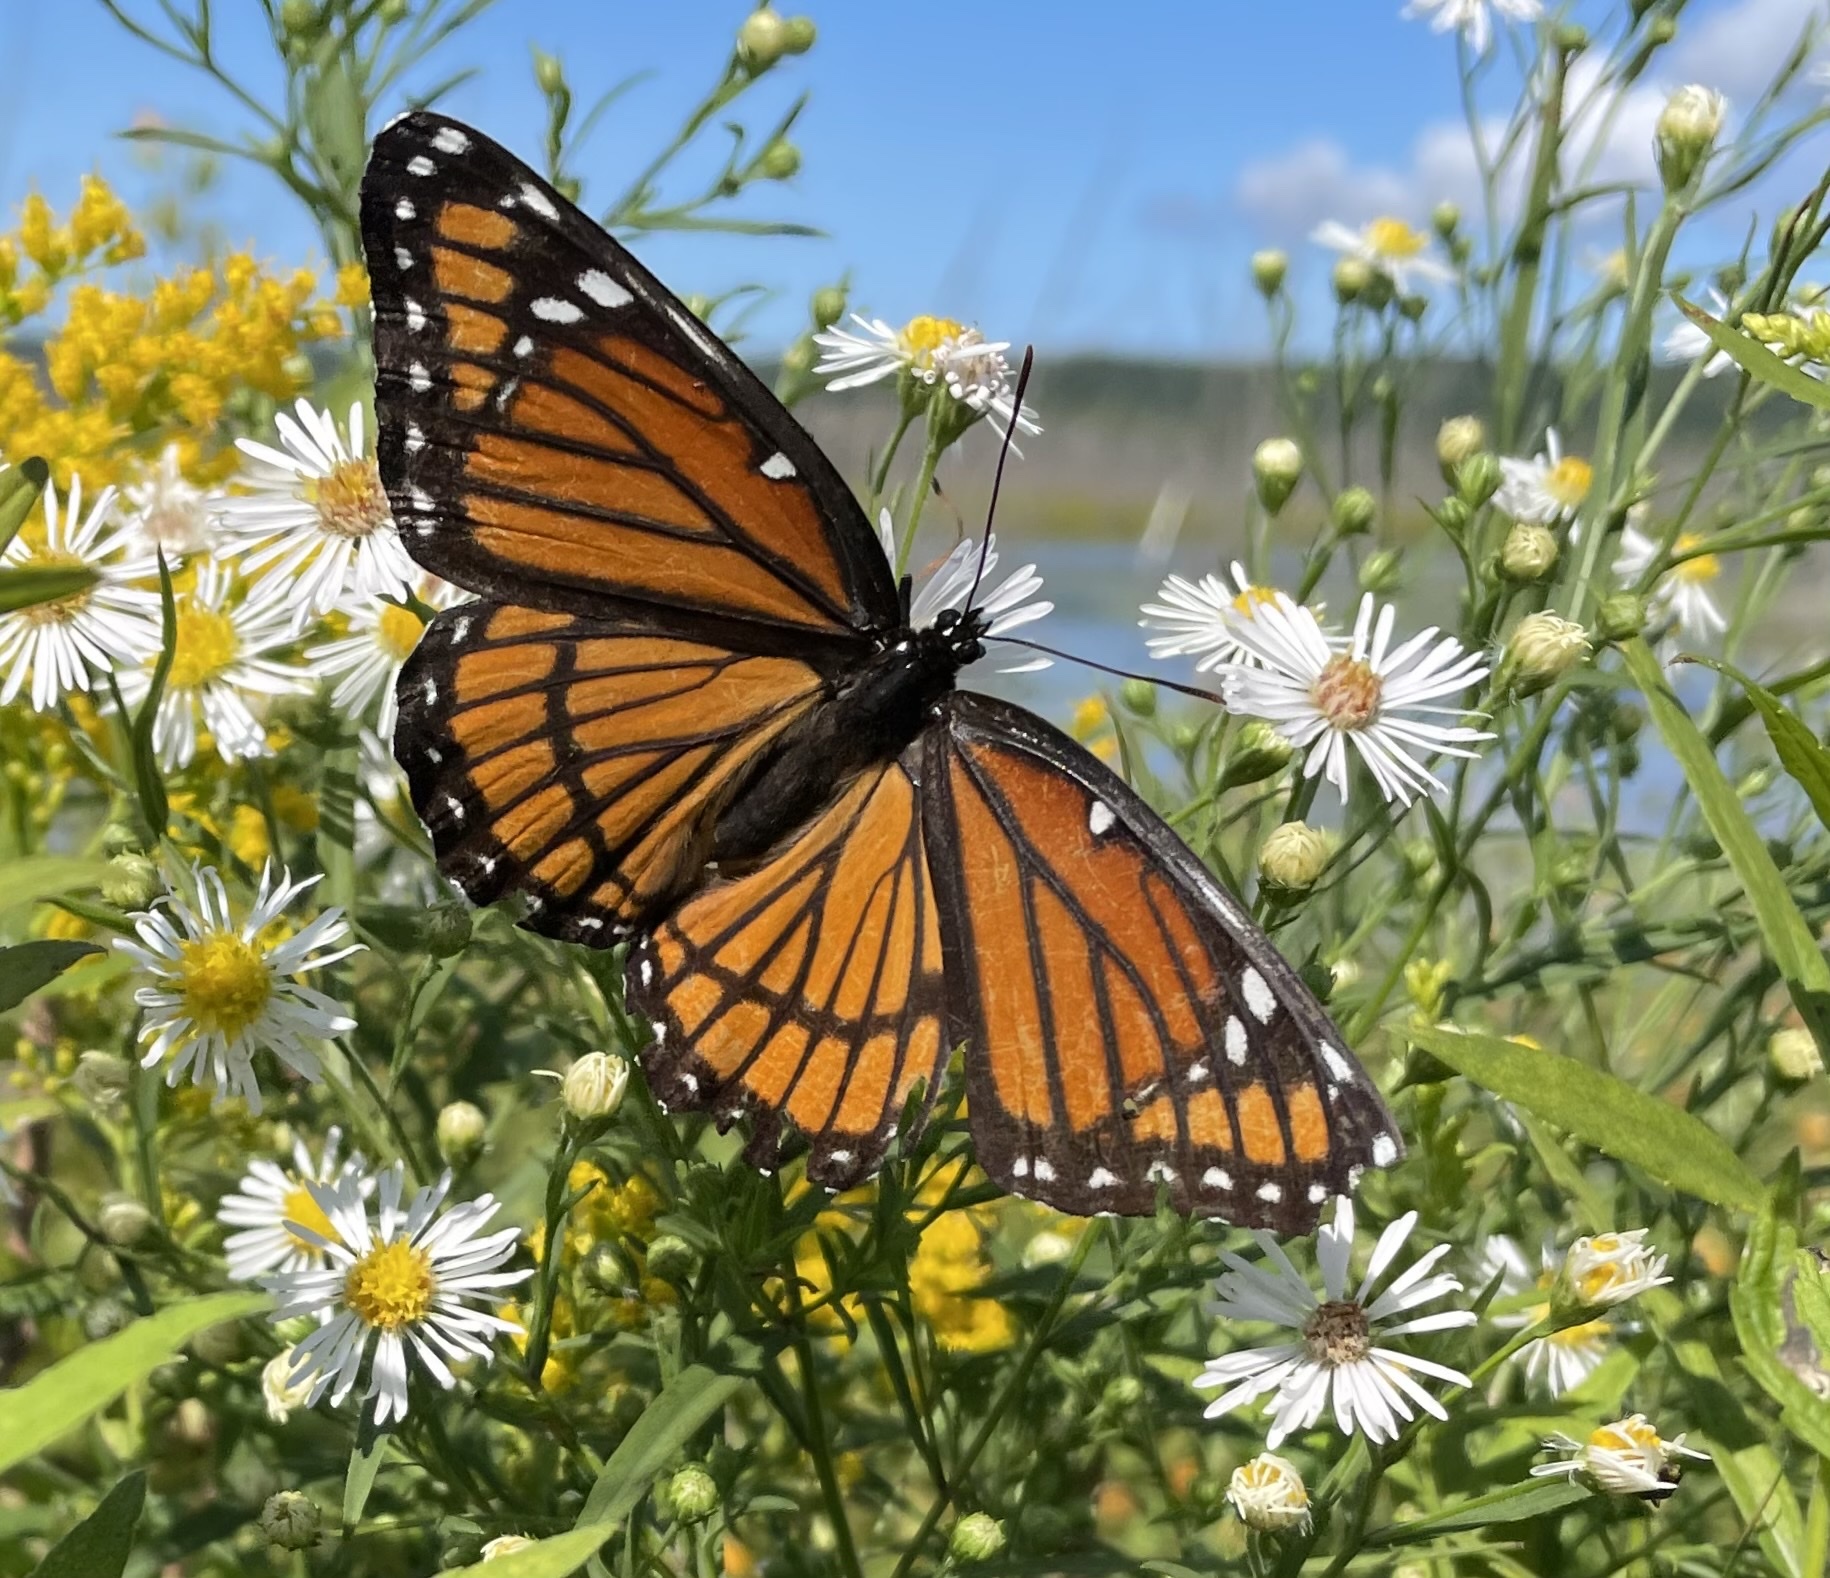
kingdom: Animalia
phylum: Arthropoda
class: Insecta
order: Lepidoptera
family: Nymphalidae
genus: Limenitis
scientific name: Limenitis archippus
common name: Viceroy
